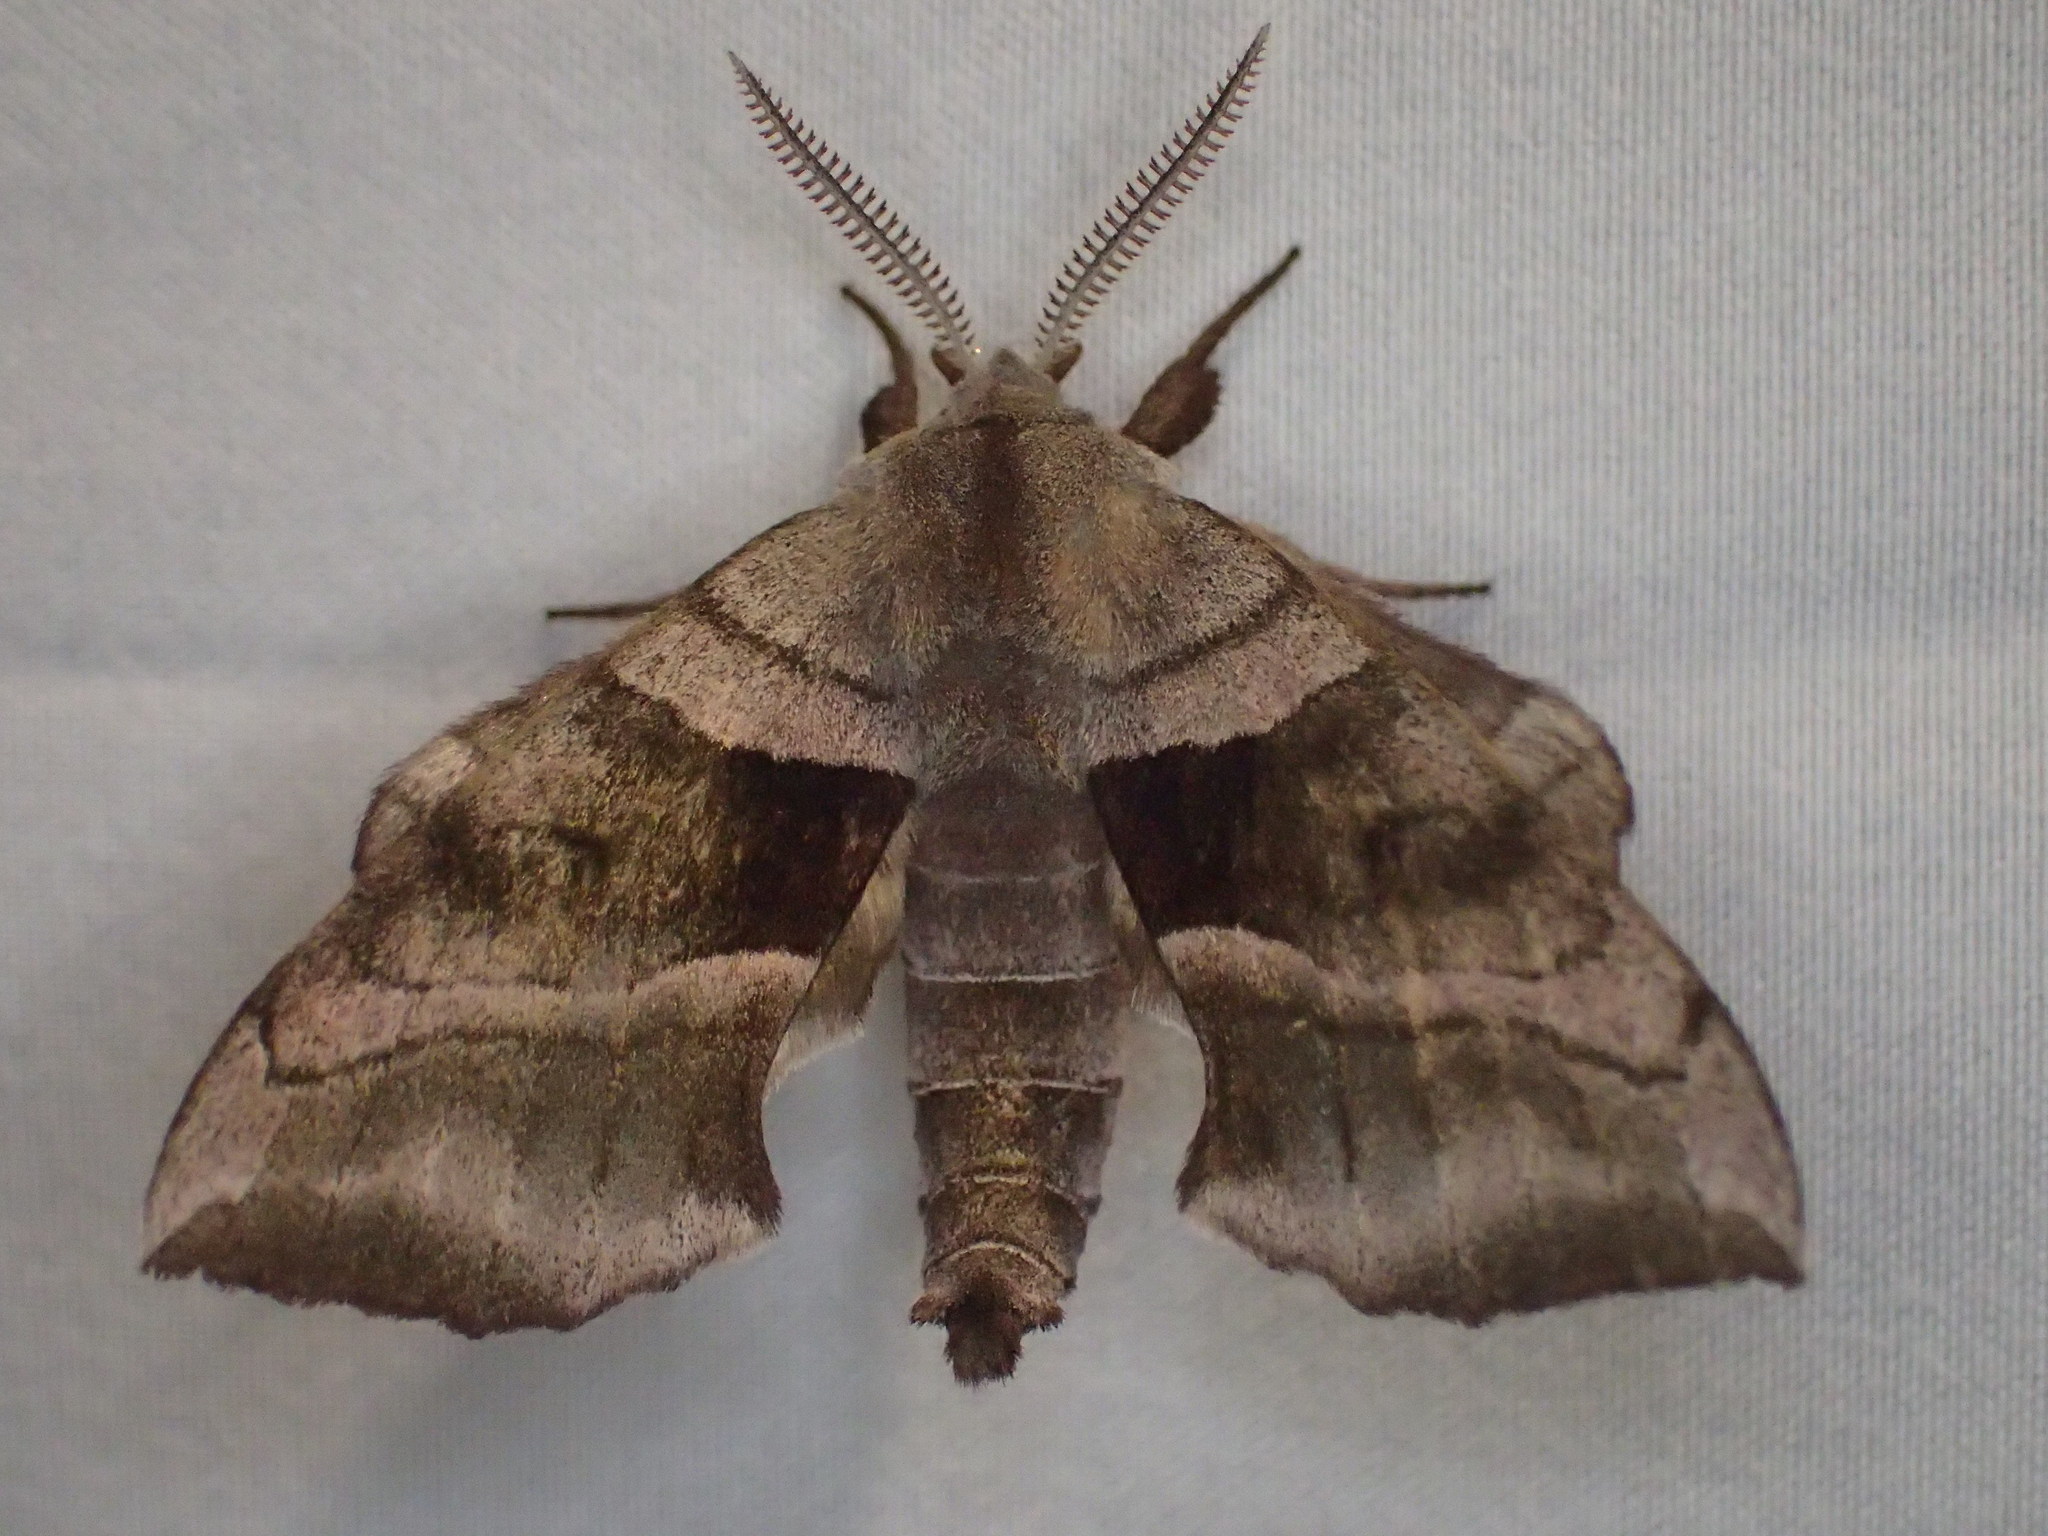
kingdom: Animalia
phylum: Arthropoda
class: Insecta
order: Lepidoptera
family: Sphingidae
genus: Amorpha
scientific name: Amorpha juglandis
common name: Walnut sphinx
